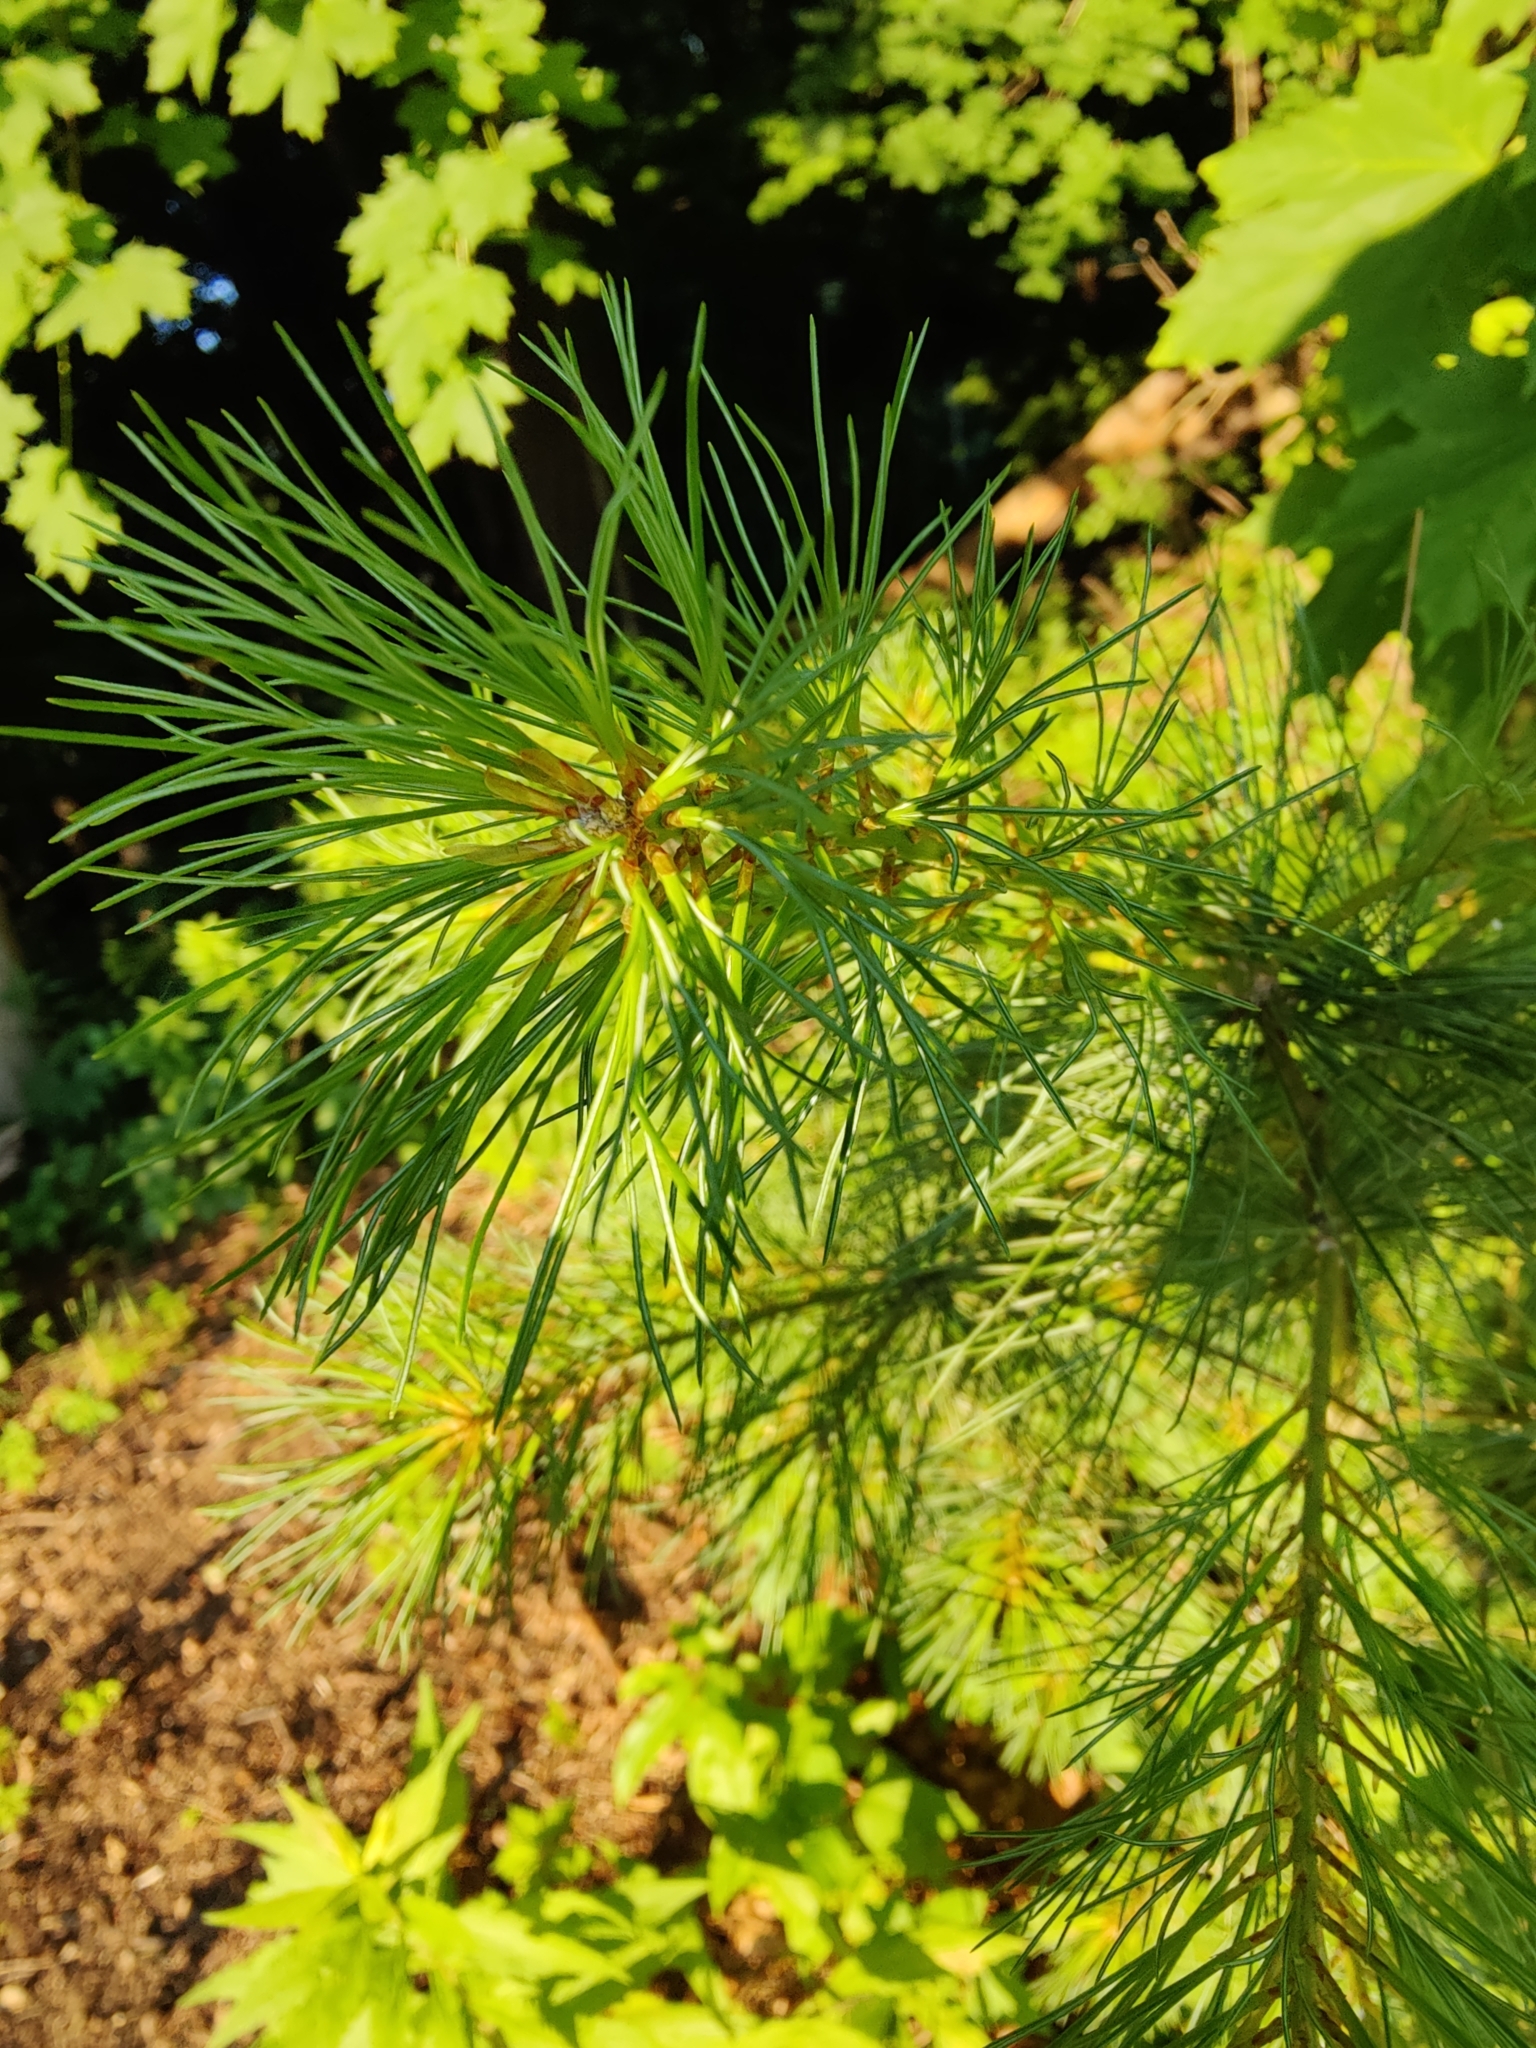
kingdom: Plantae
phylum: Tracheophyta
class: Pinopsida
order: Pinales
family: Pinaceae
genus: Pinus
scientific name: Pinus strobus
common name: Weymouth pine
